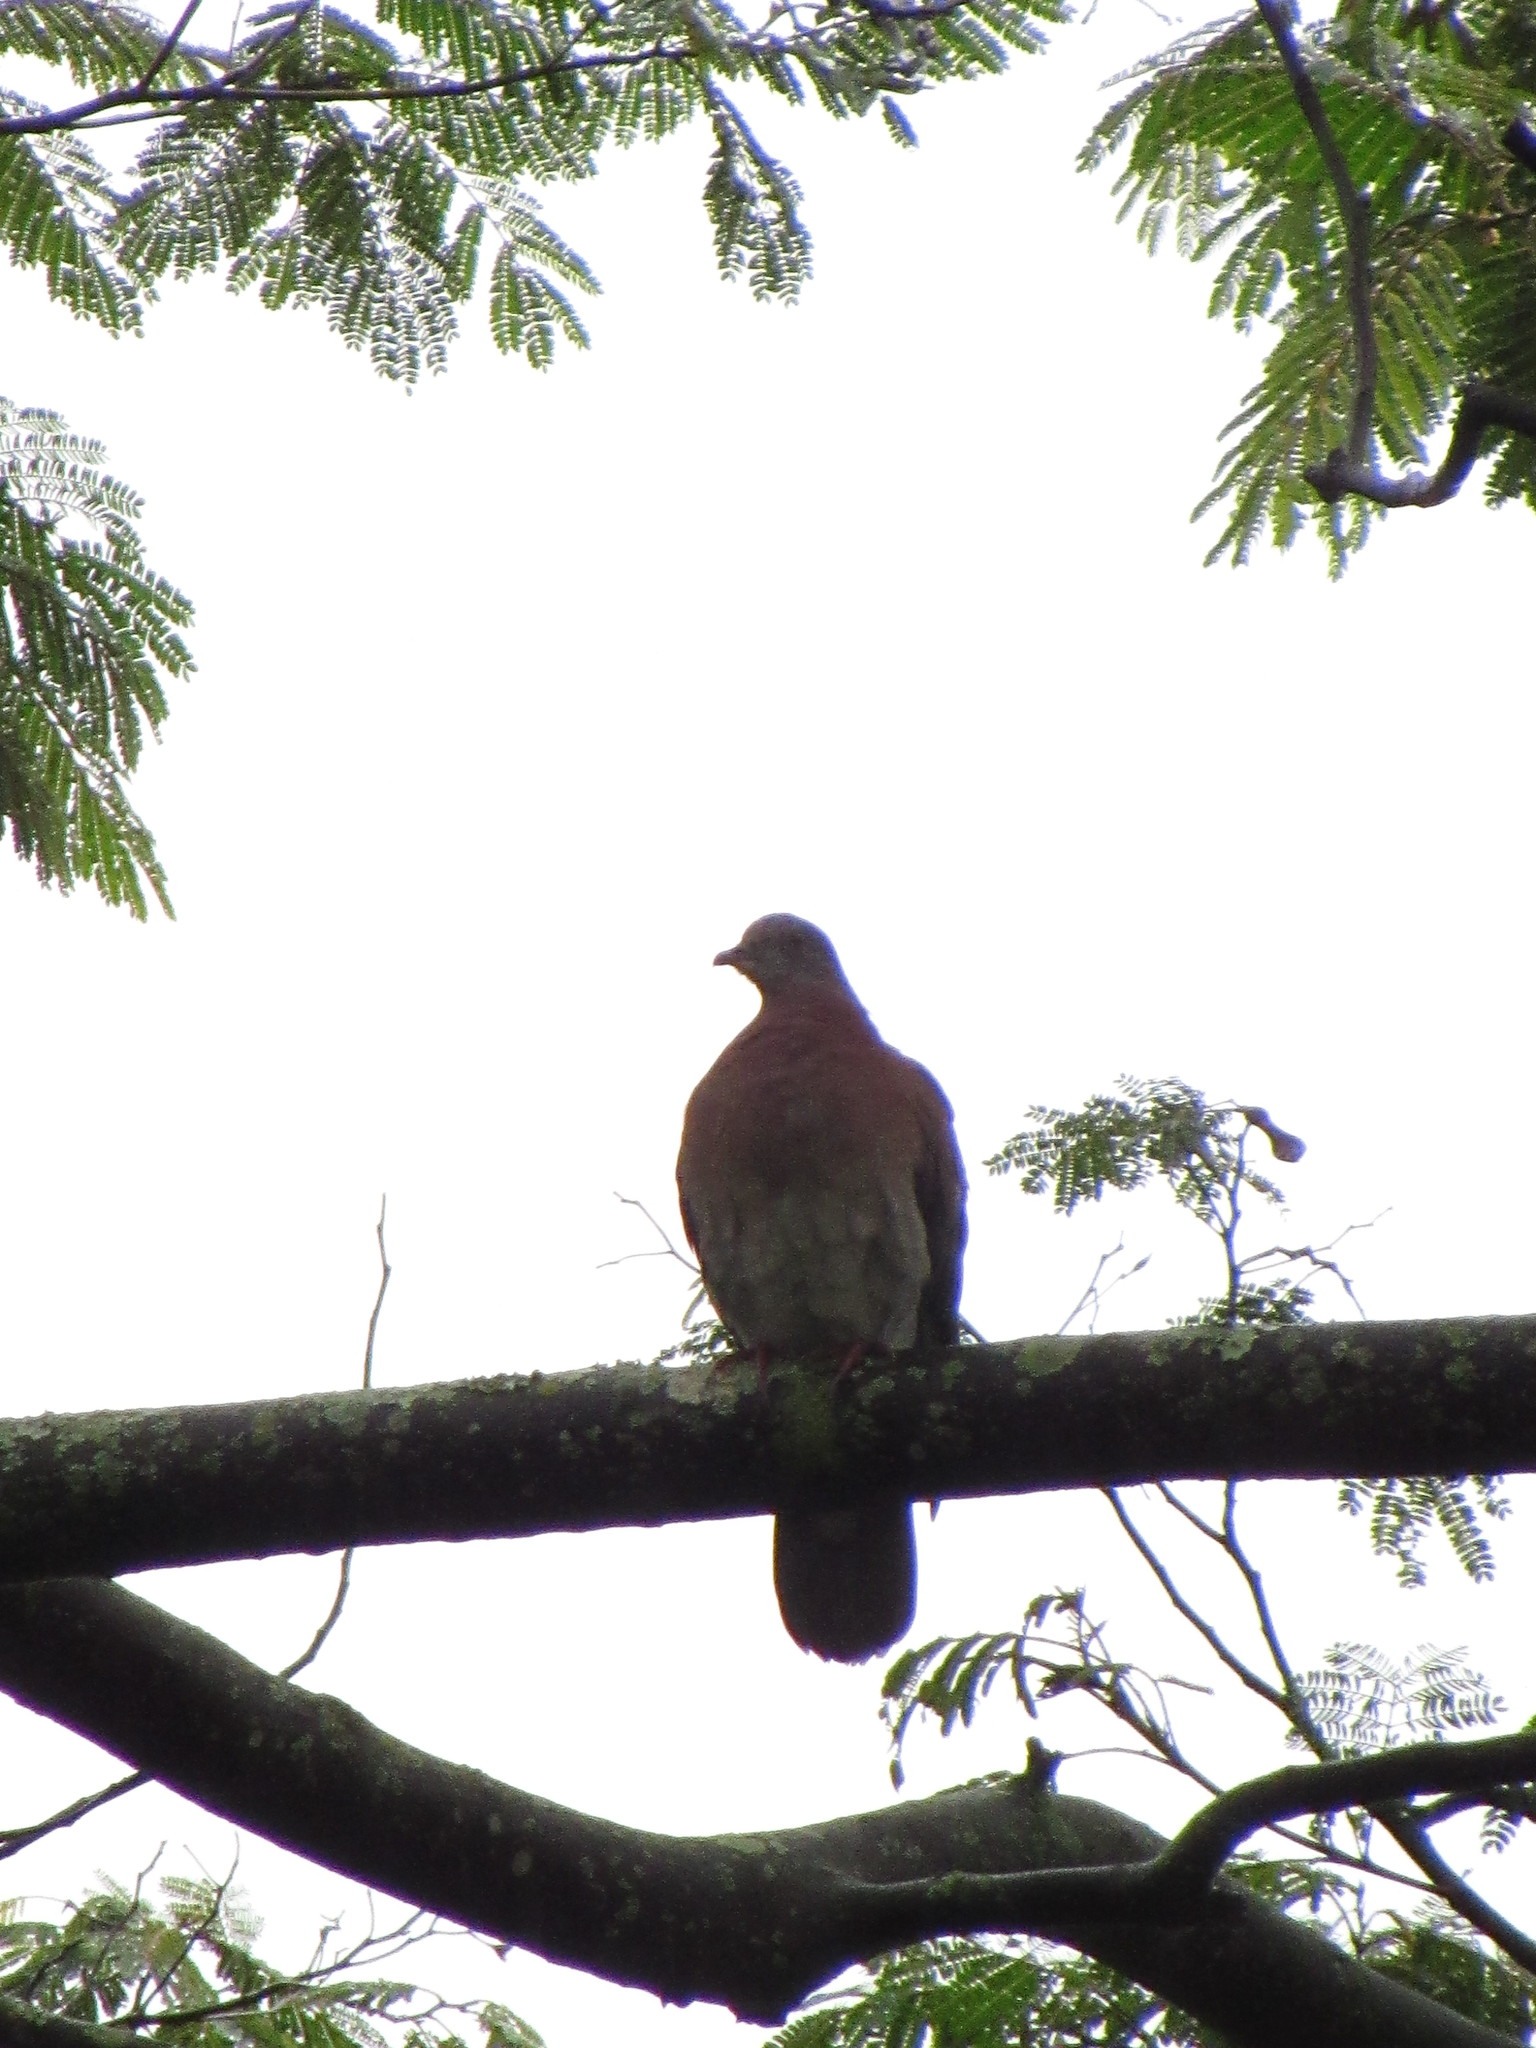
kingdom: Animalia
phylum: Chordata
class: Aves
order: Columbiformes
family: Columbidae
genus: Patagioenas
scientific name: Patagioenas cayennensis
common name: Pale-vented pigeon
